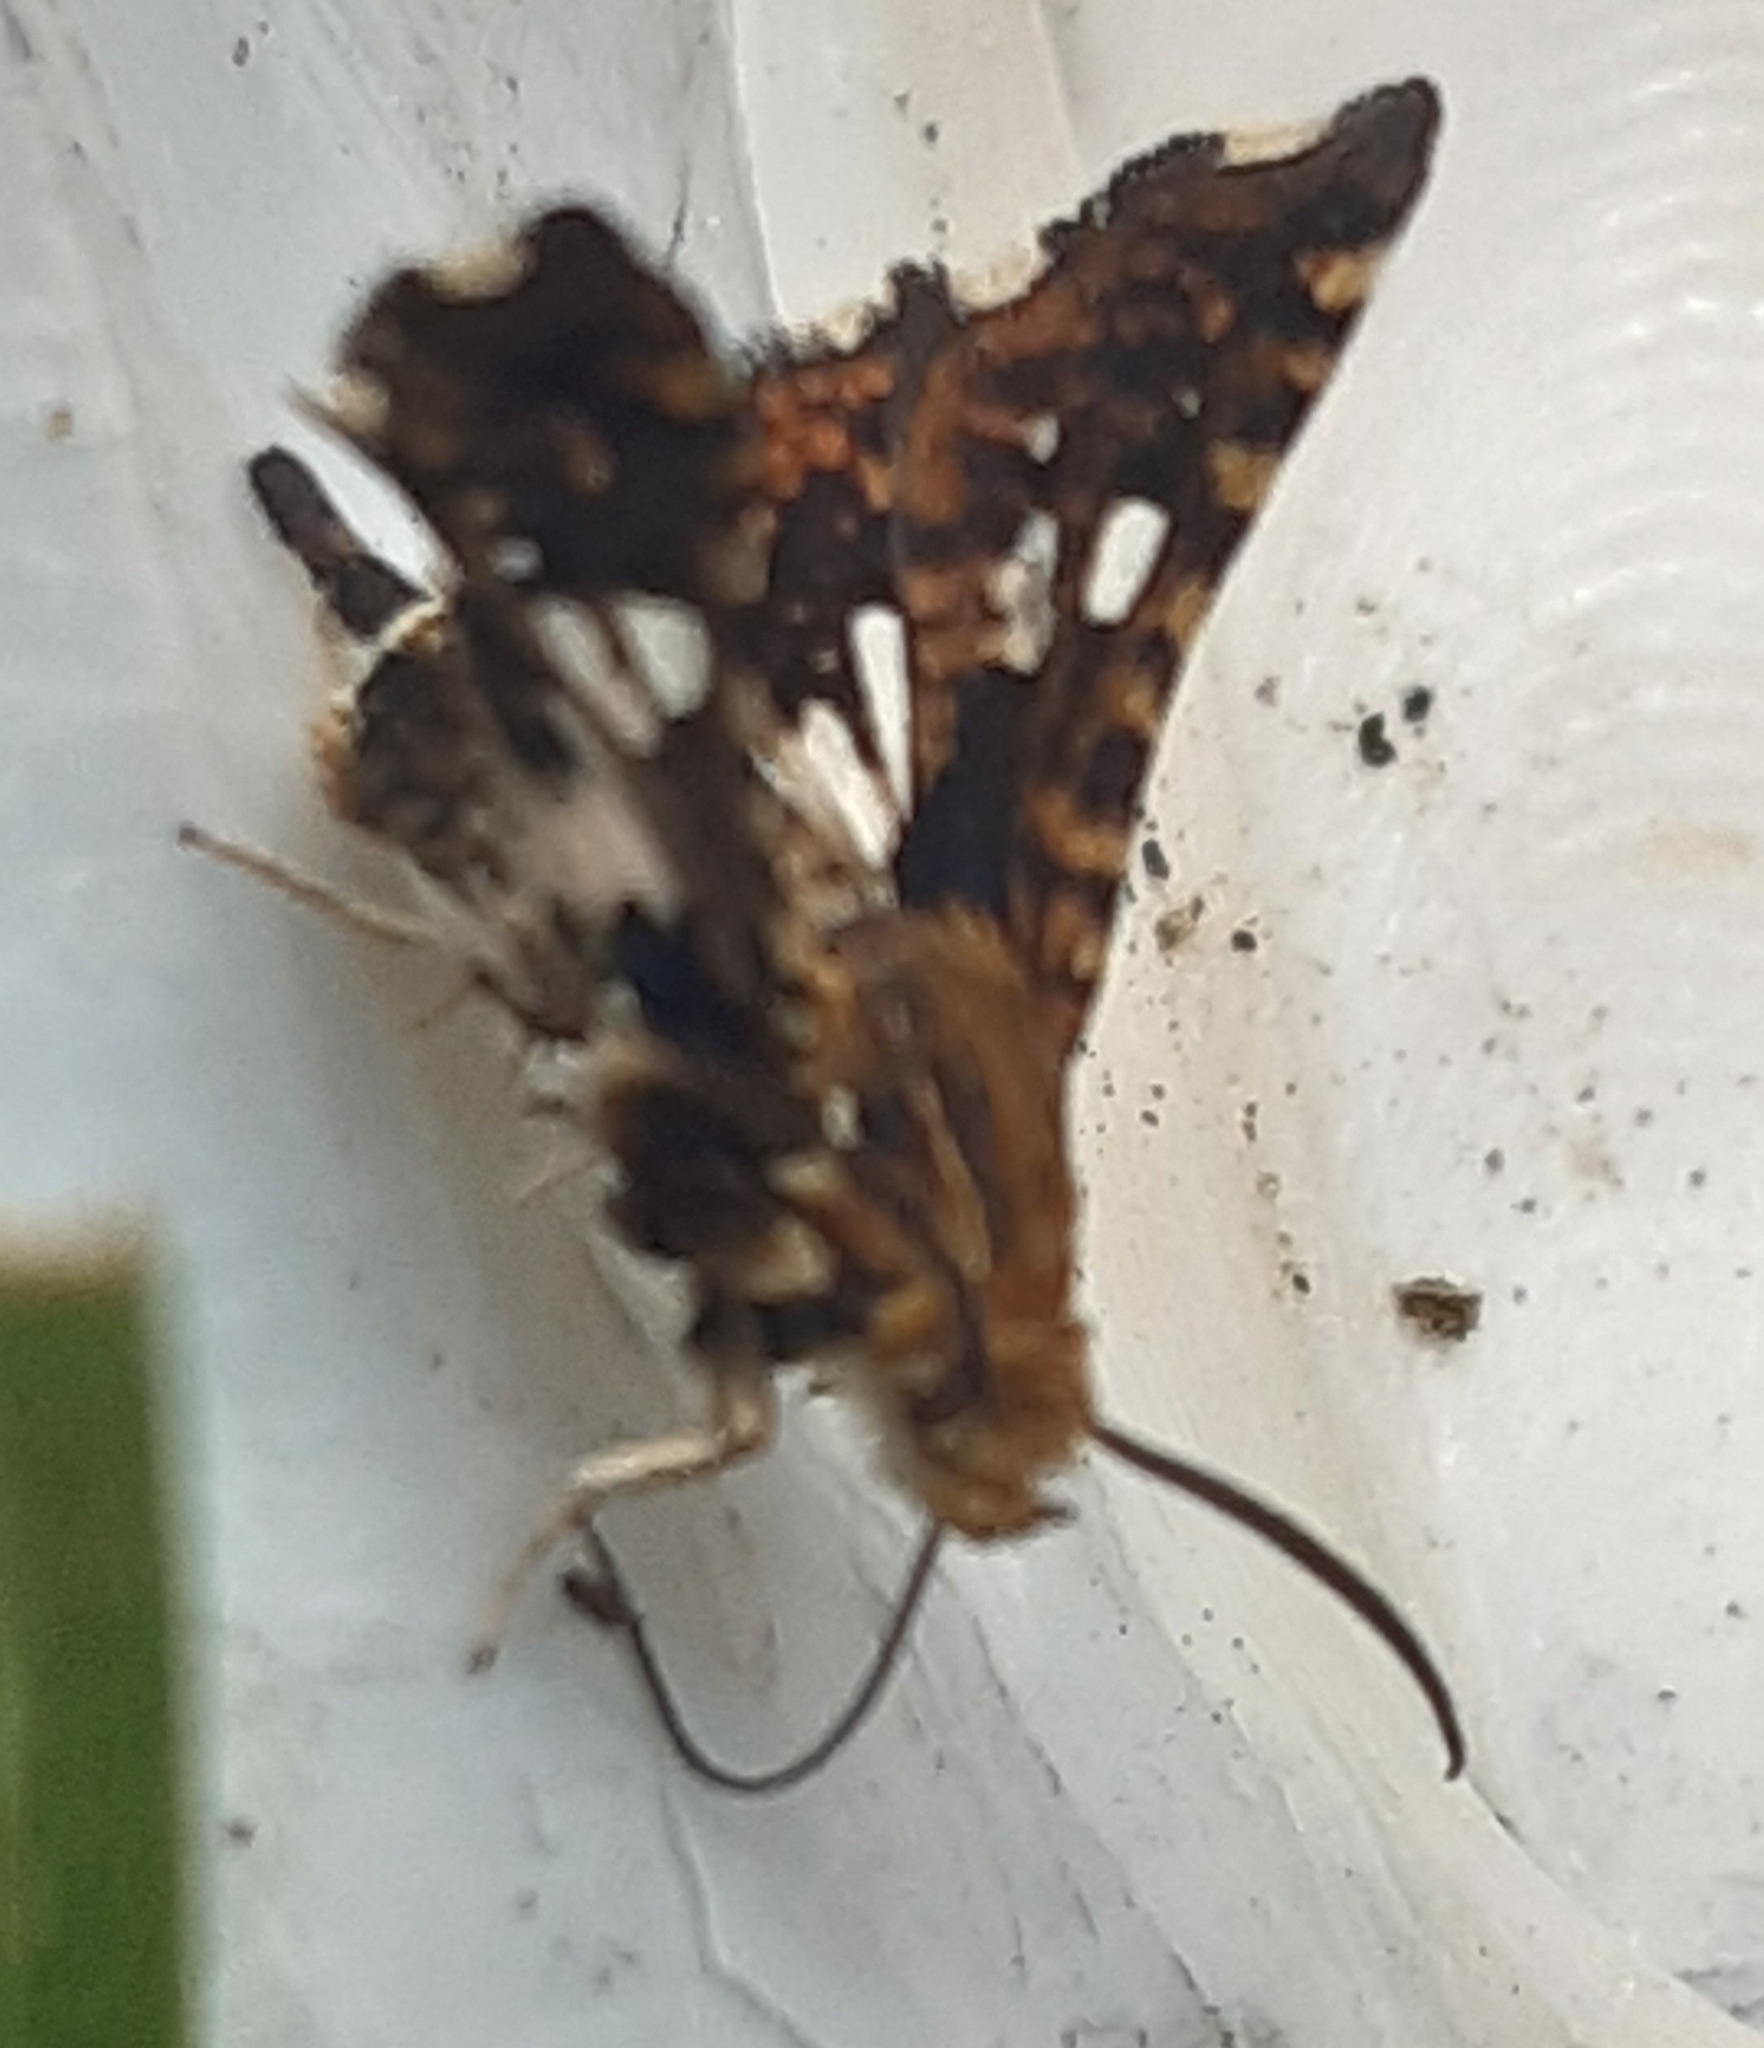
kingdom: Animalia
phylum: Arthropoda
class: Insecta
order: Lepidoptera
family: Thyrididae
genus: Thyris
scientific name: Thyris fenestrella
